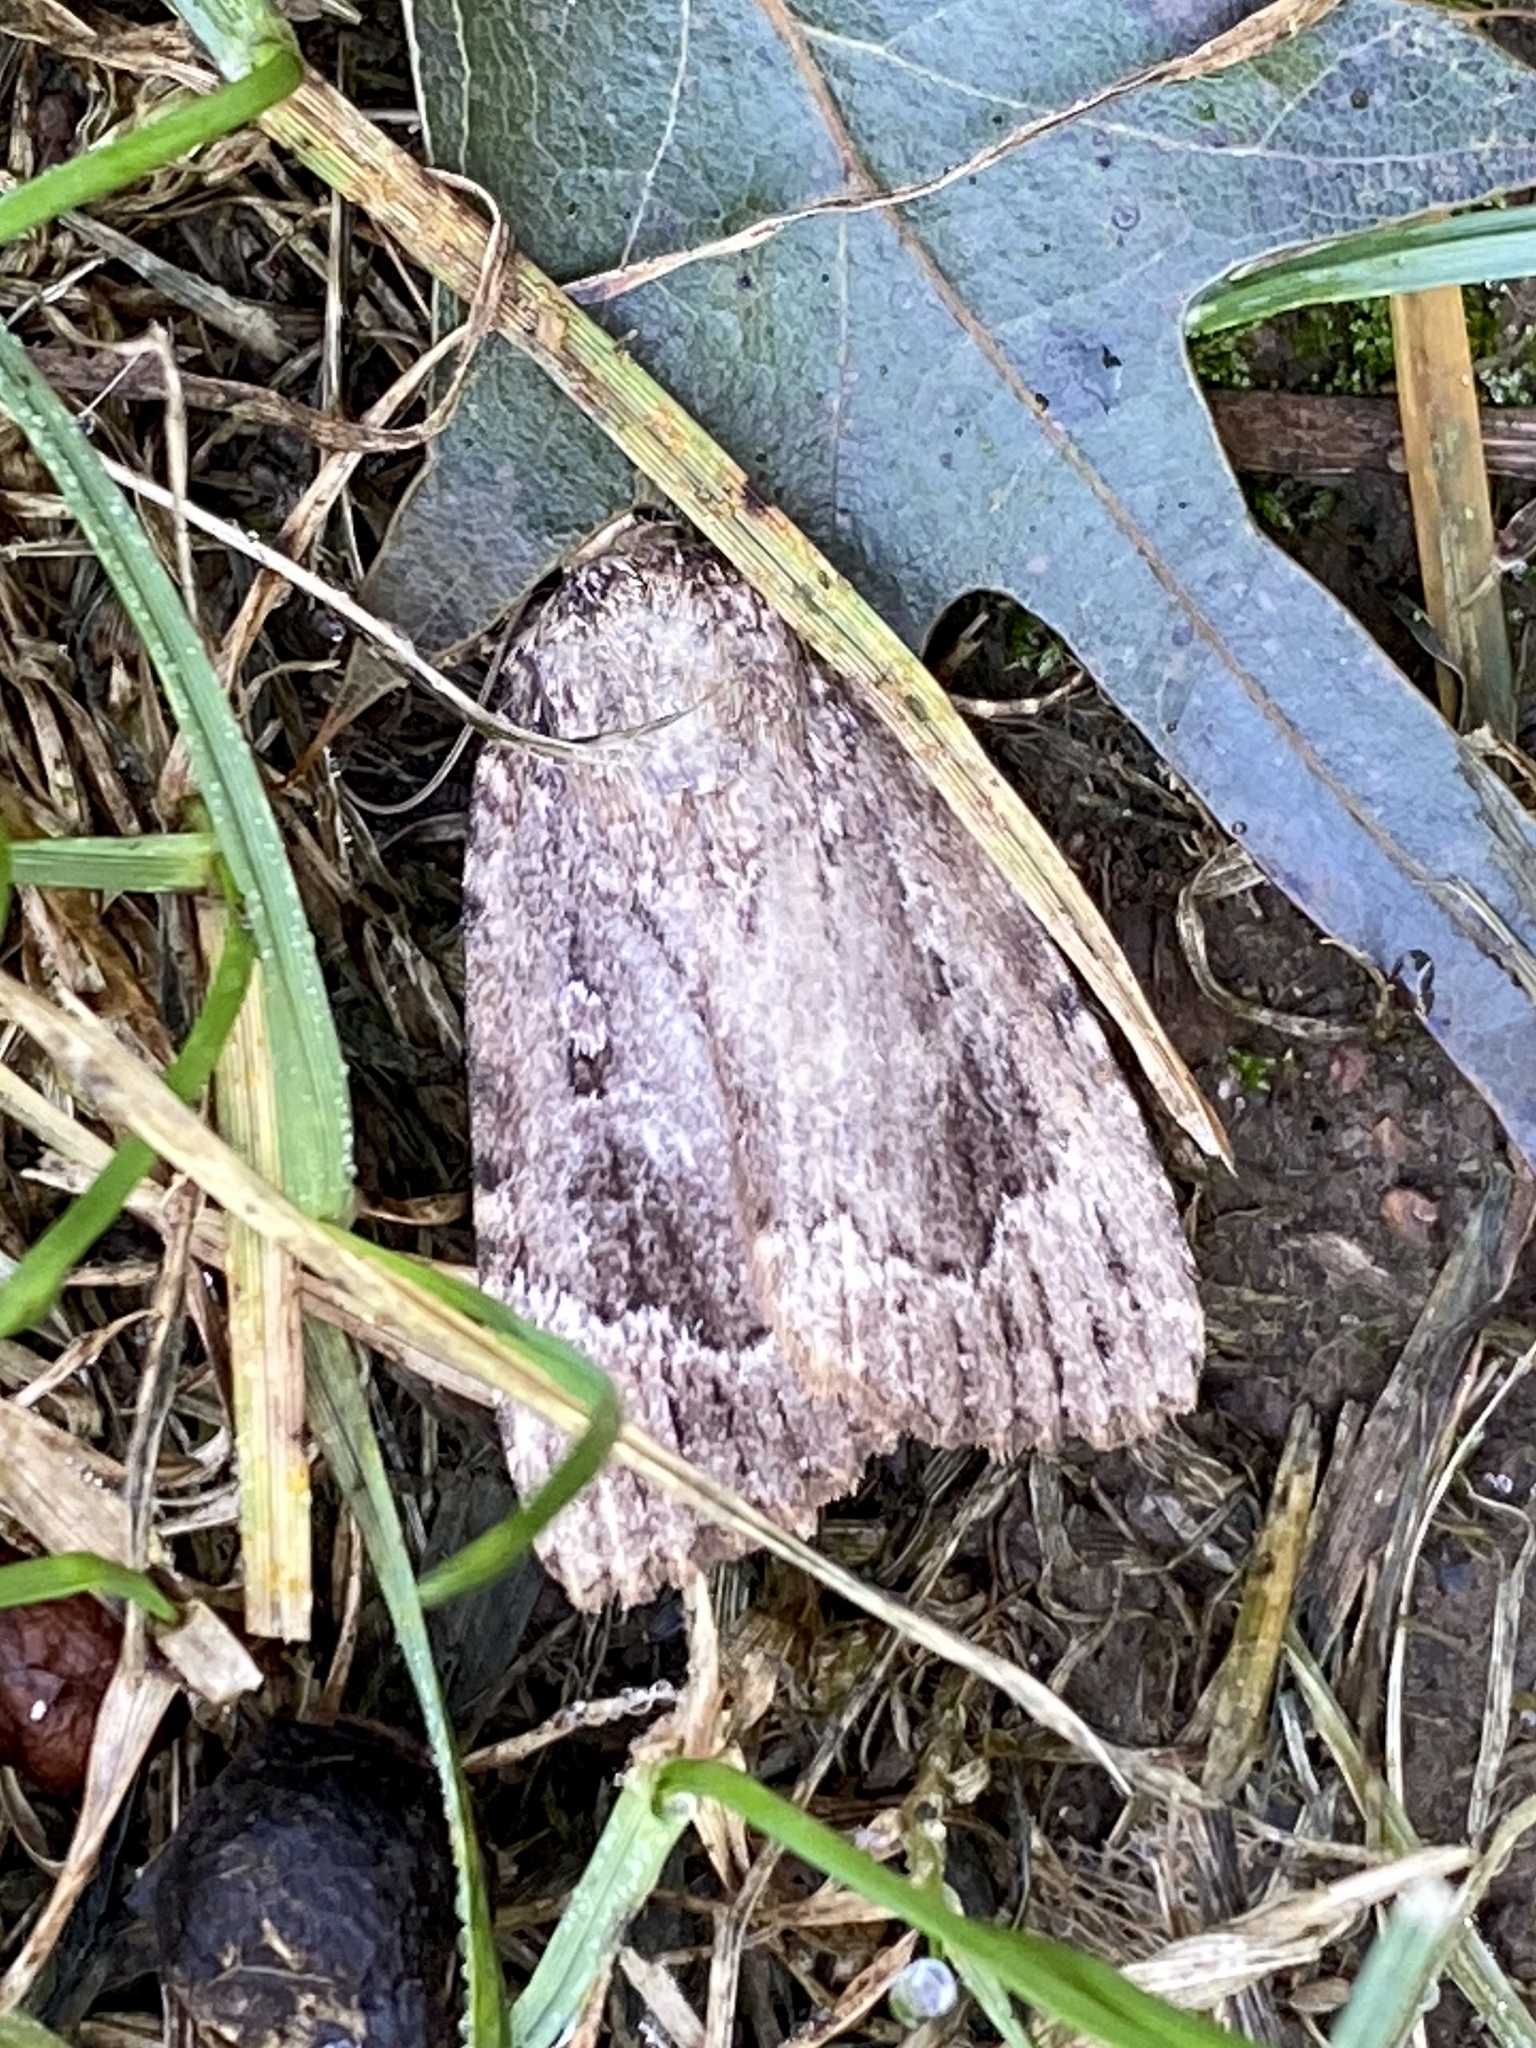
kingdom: Animalia
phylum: Arthropoda
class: Insecta
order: Lepidoptera
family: Noctuidae
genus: Amphipyra
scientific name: Amphipyra pyramidoides
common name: American copper underwing
